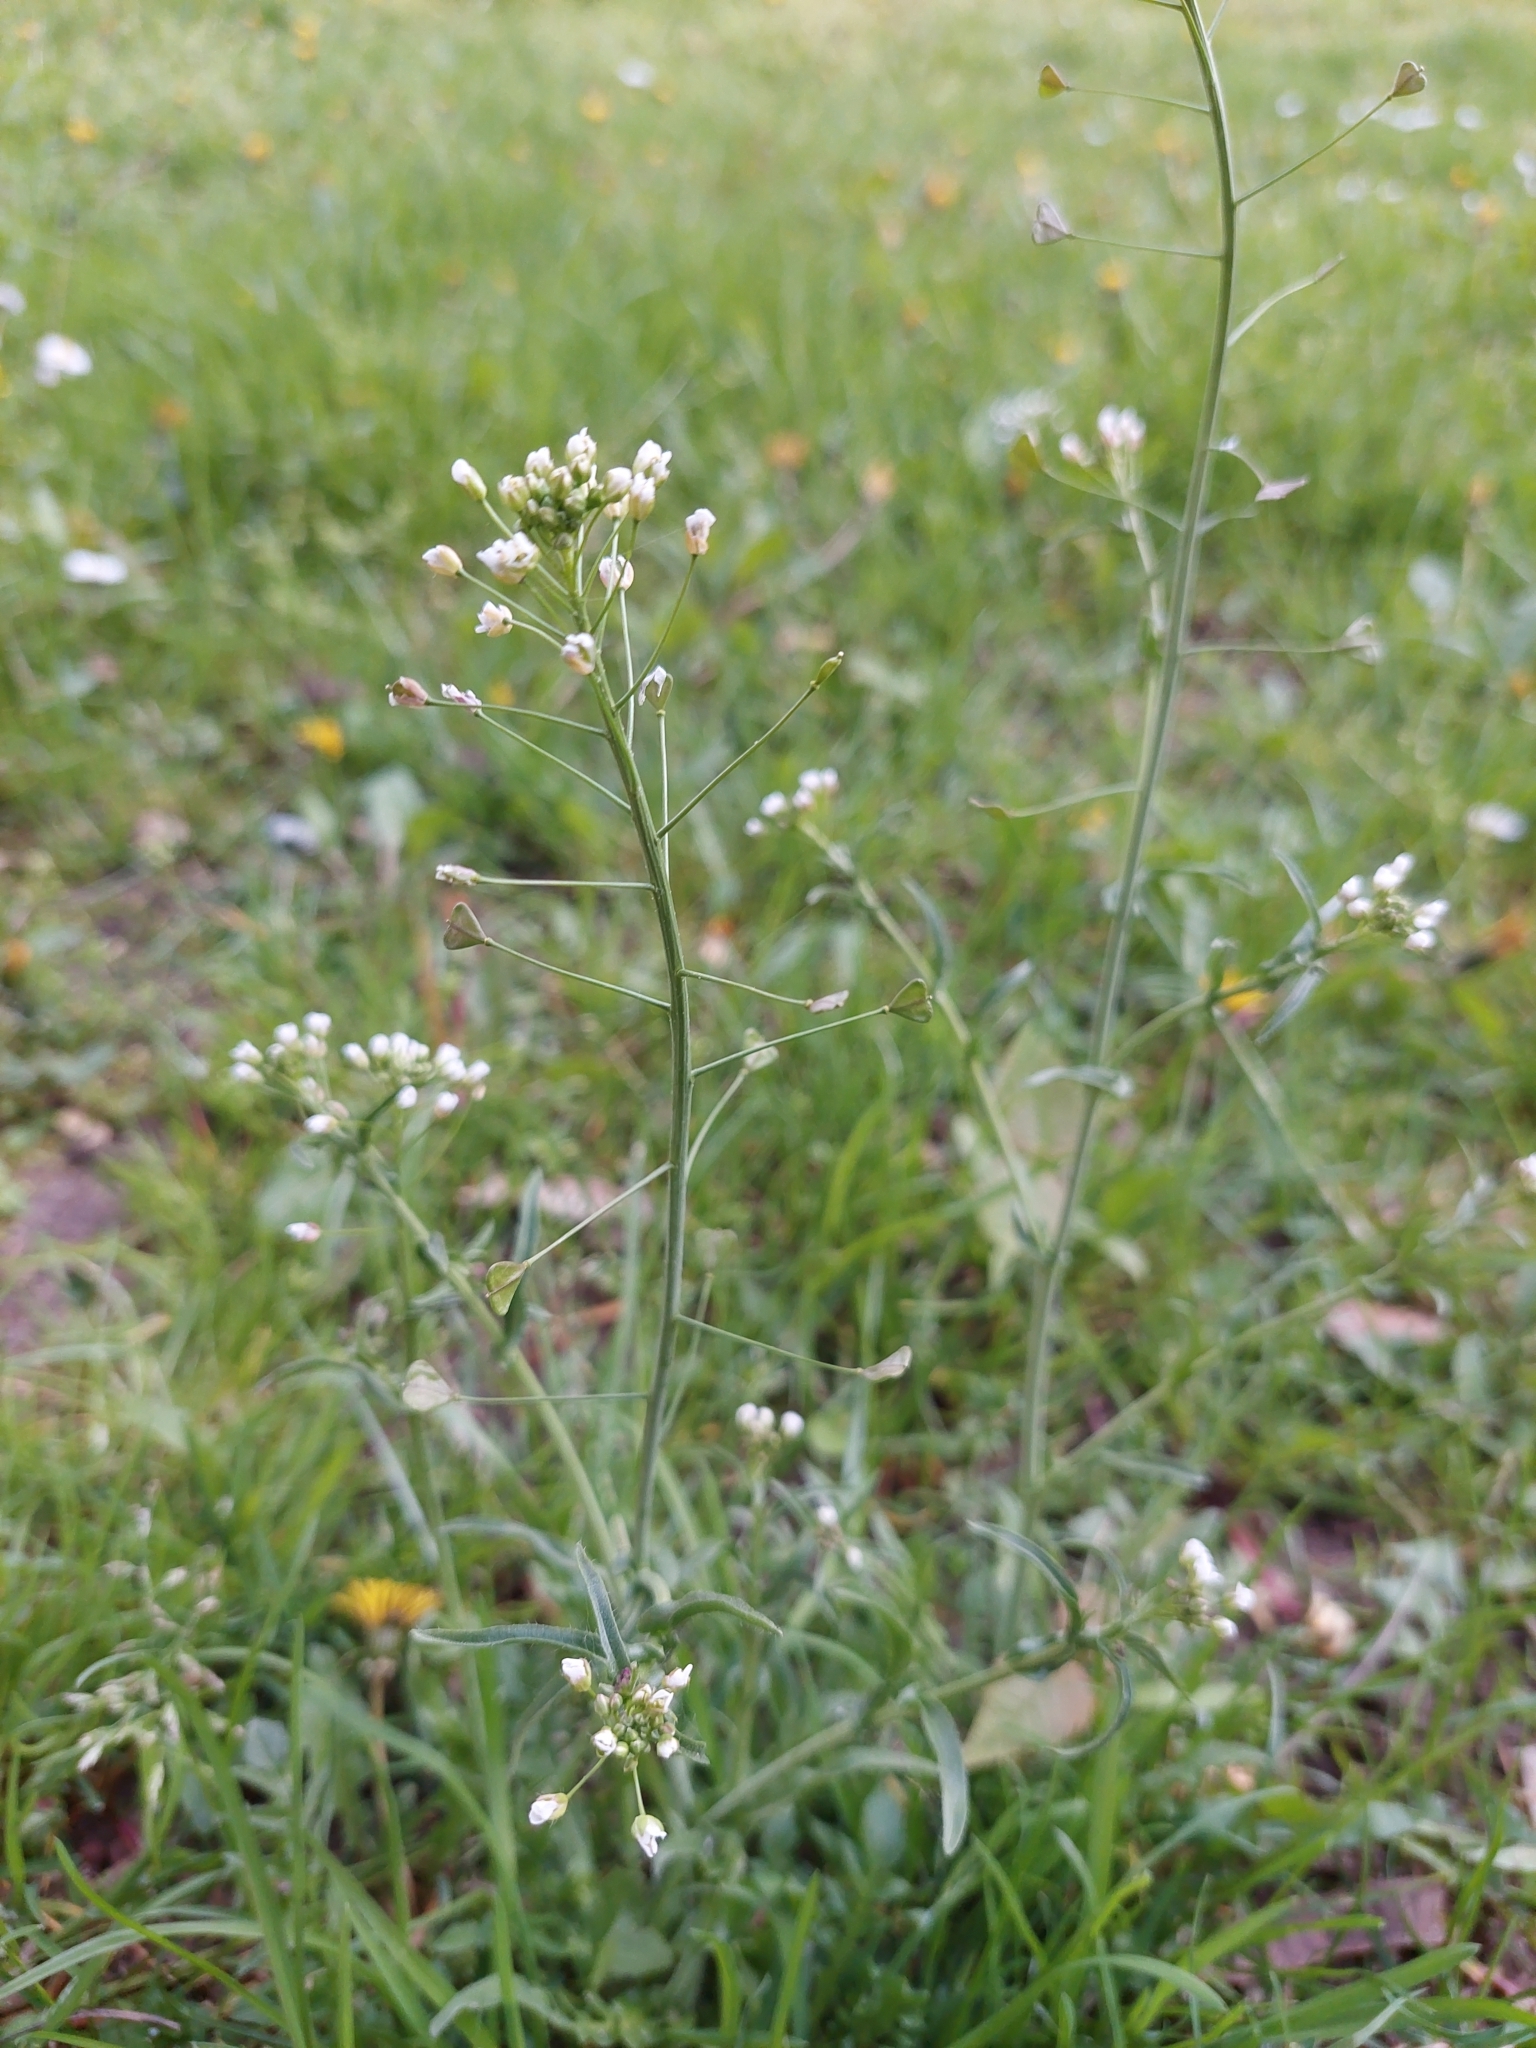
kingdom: Plantae
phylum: Tracheophyta
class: Magnoliopsida
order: Brassicales
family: Brassicaceae
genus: Capsella
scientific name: Capsella bursa-pastoris
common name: Shepherd's purse
